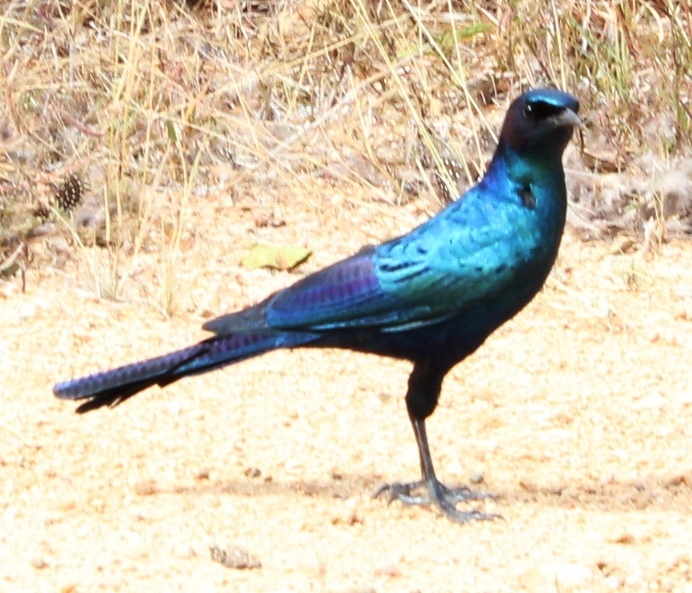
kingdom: Animalia
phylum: Chordata
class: Aves
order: Passeriformes
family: Sturnidae
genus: Lamprotornis
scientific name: Lamprotornis australis
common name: Burchell's starling
